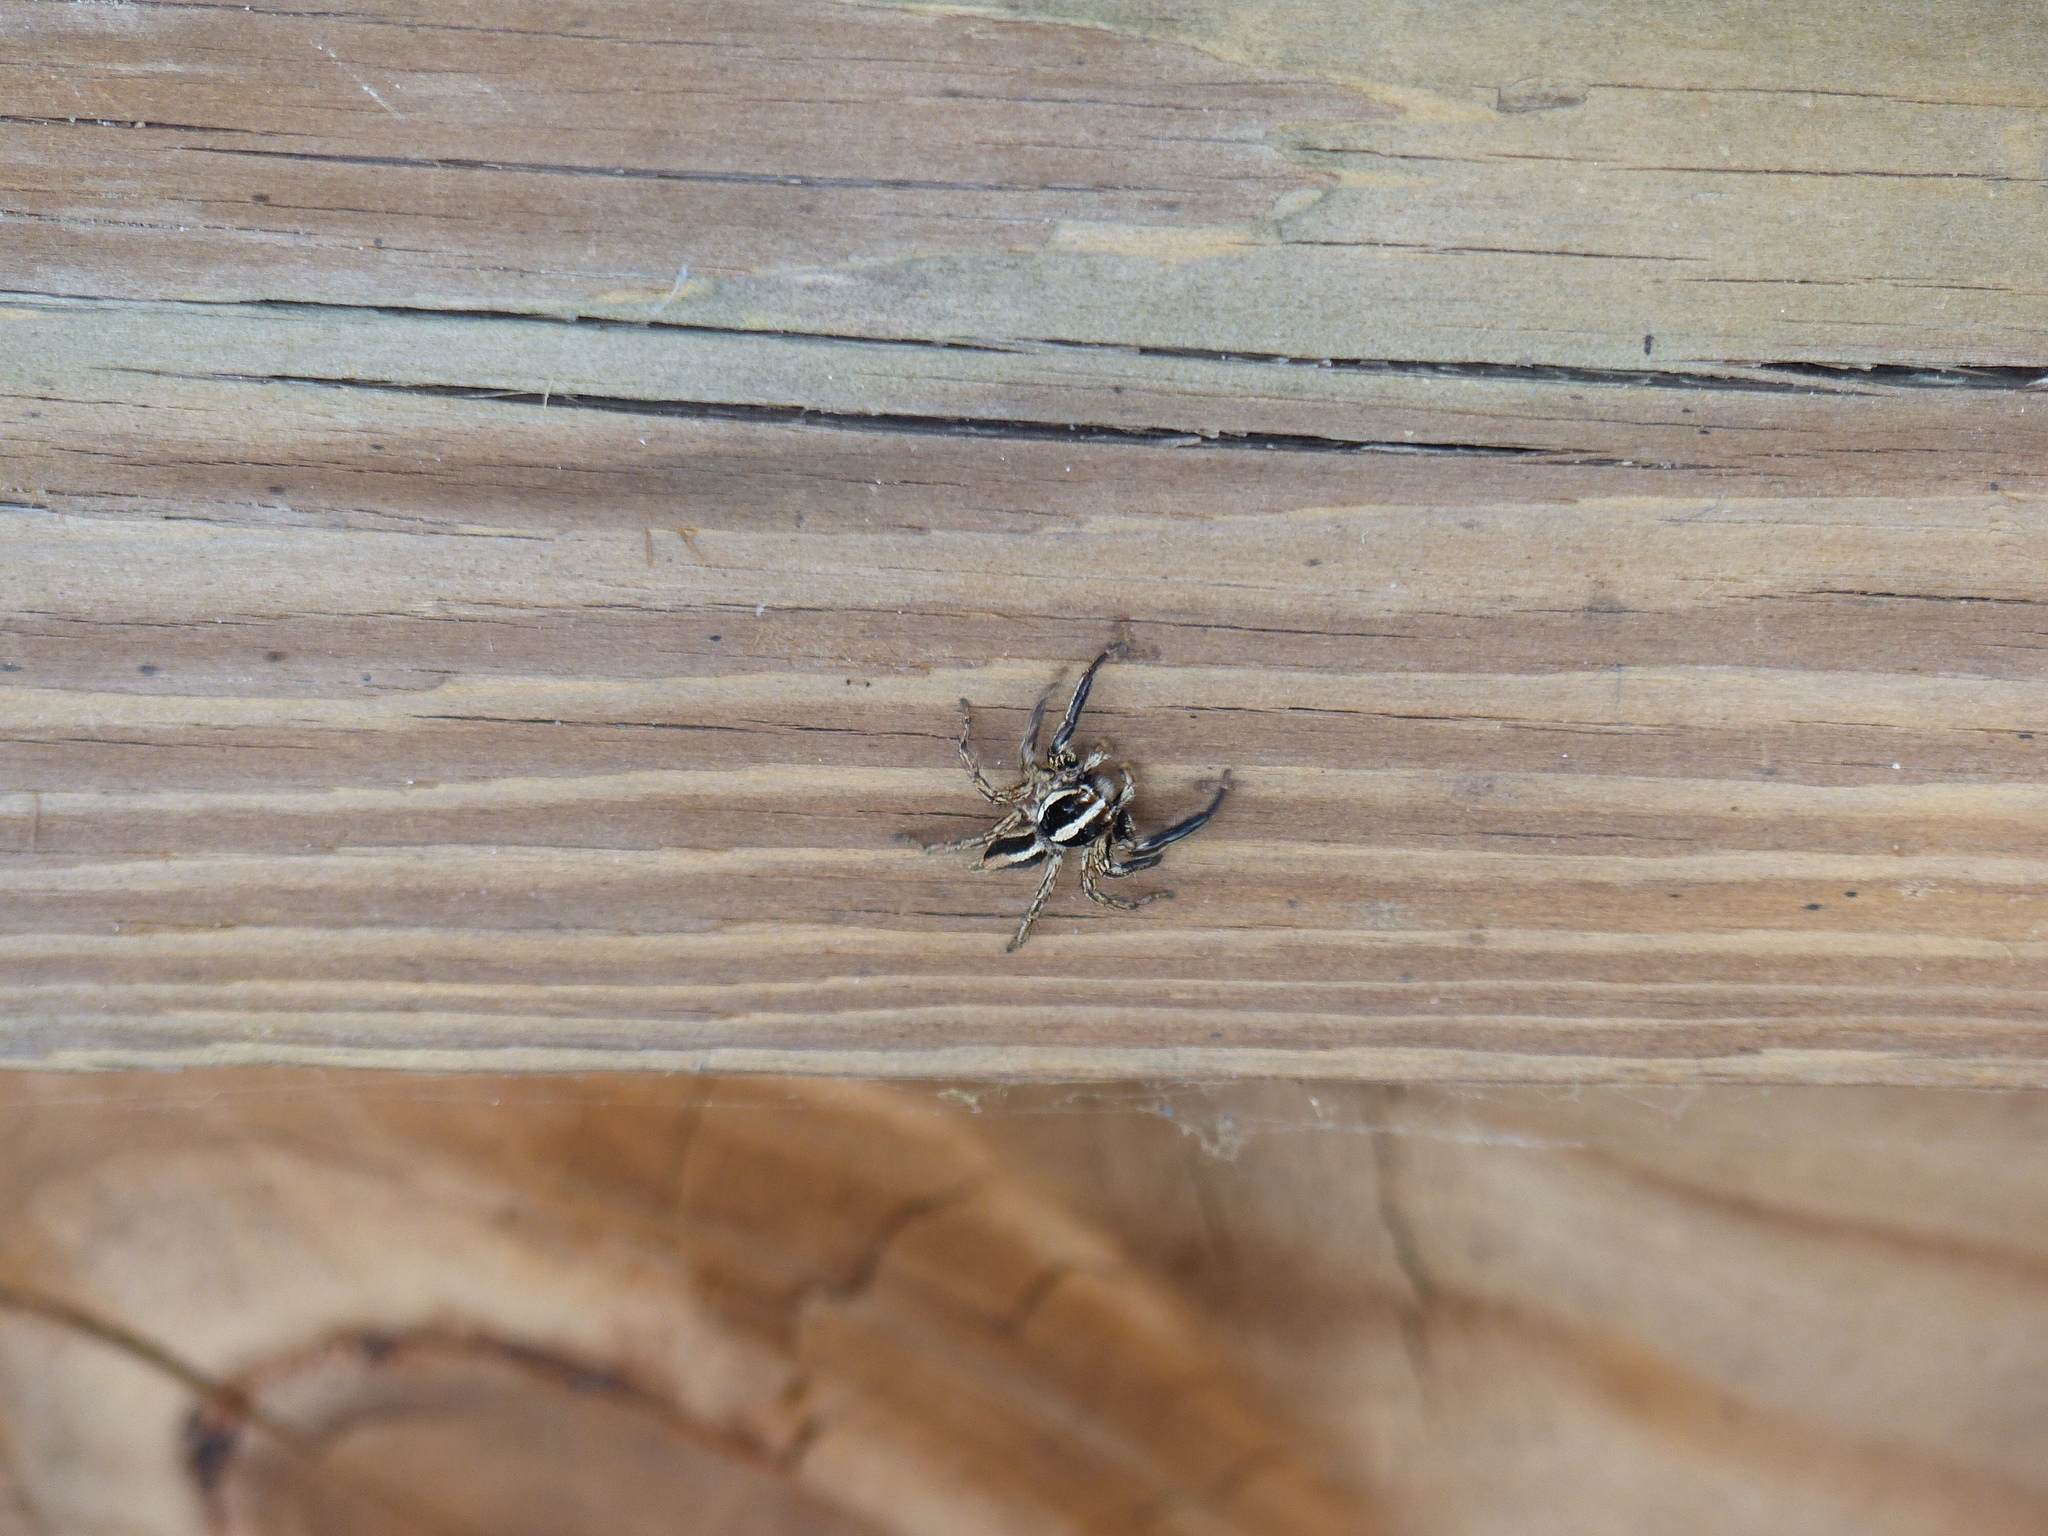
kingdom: Animalia
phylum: Arthropoda
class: Arachnida
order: Araneae
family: Salticidae
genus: Plexippus
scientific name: Plexippus paykulli
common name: Pantropical jumper
